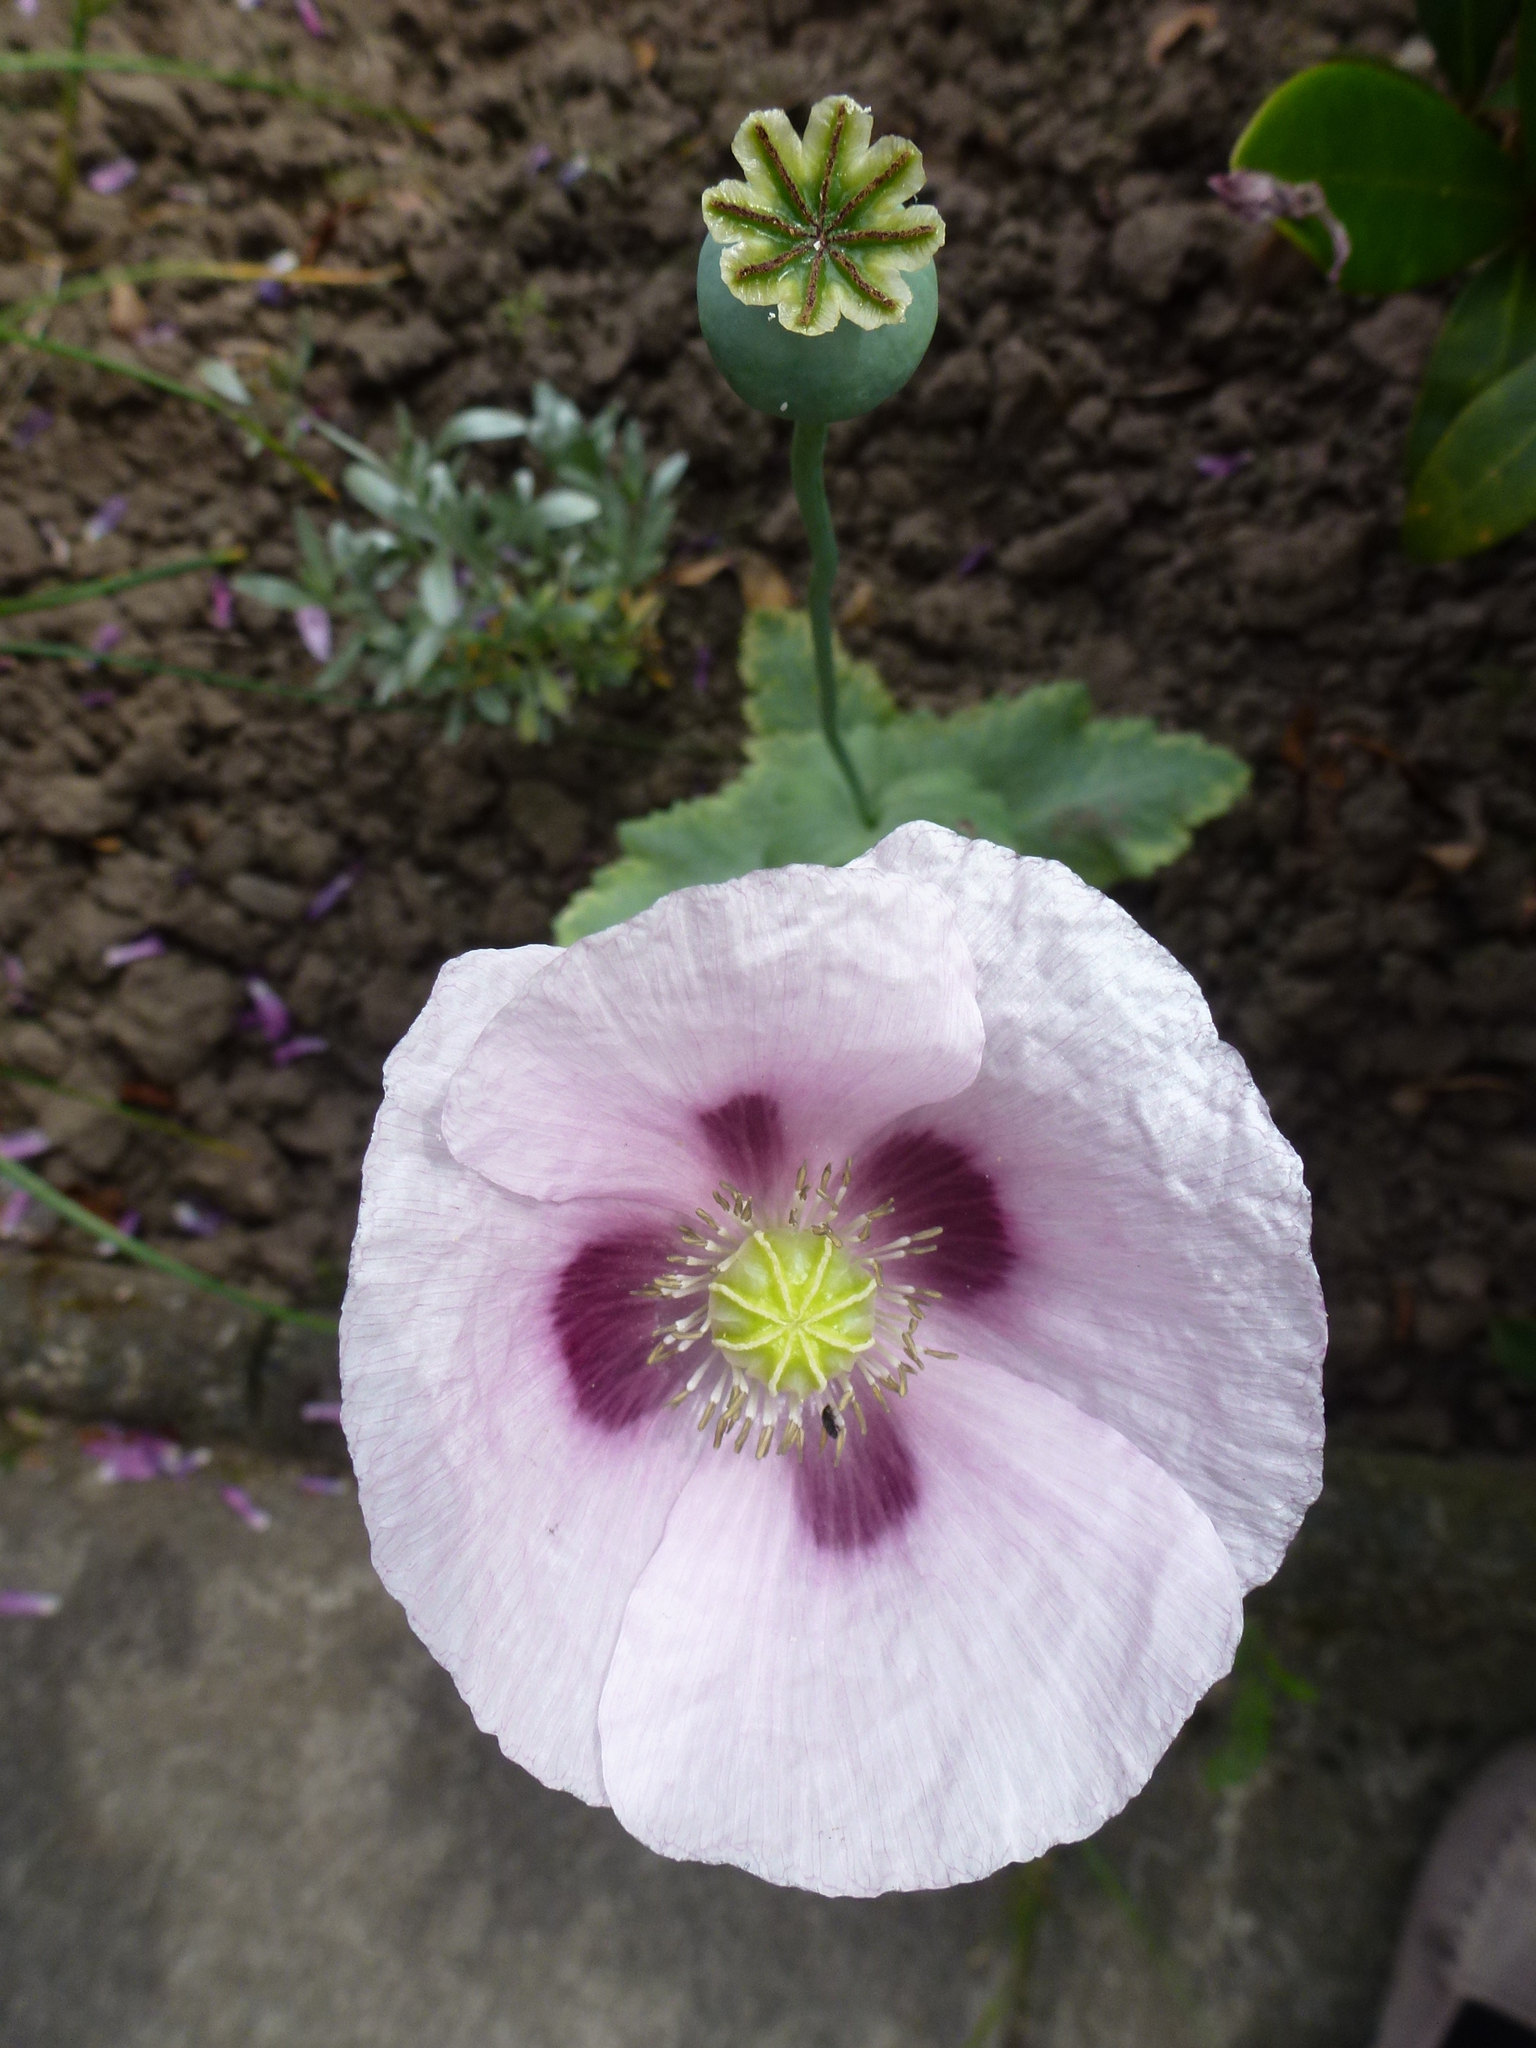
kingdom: Plantae
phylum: Tracheophyta
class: Magnoliopsida
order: Ranunculales
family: Papaveraceae
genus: Papaver
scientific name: Papaver somniferum
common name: Opium poppy
